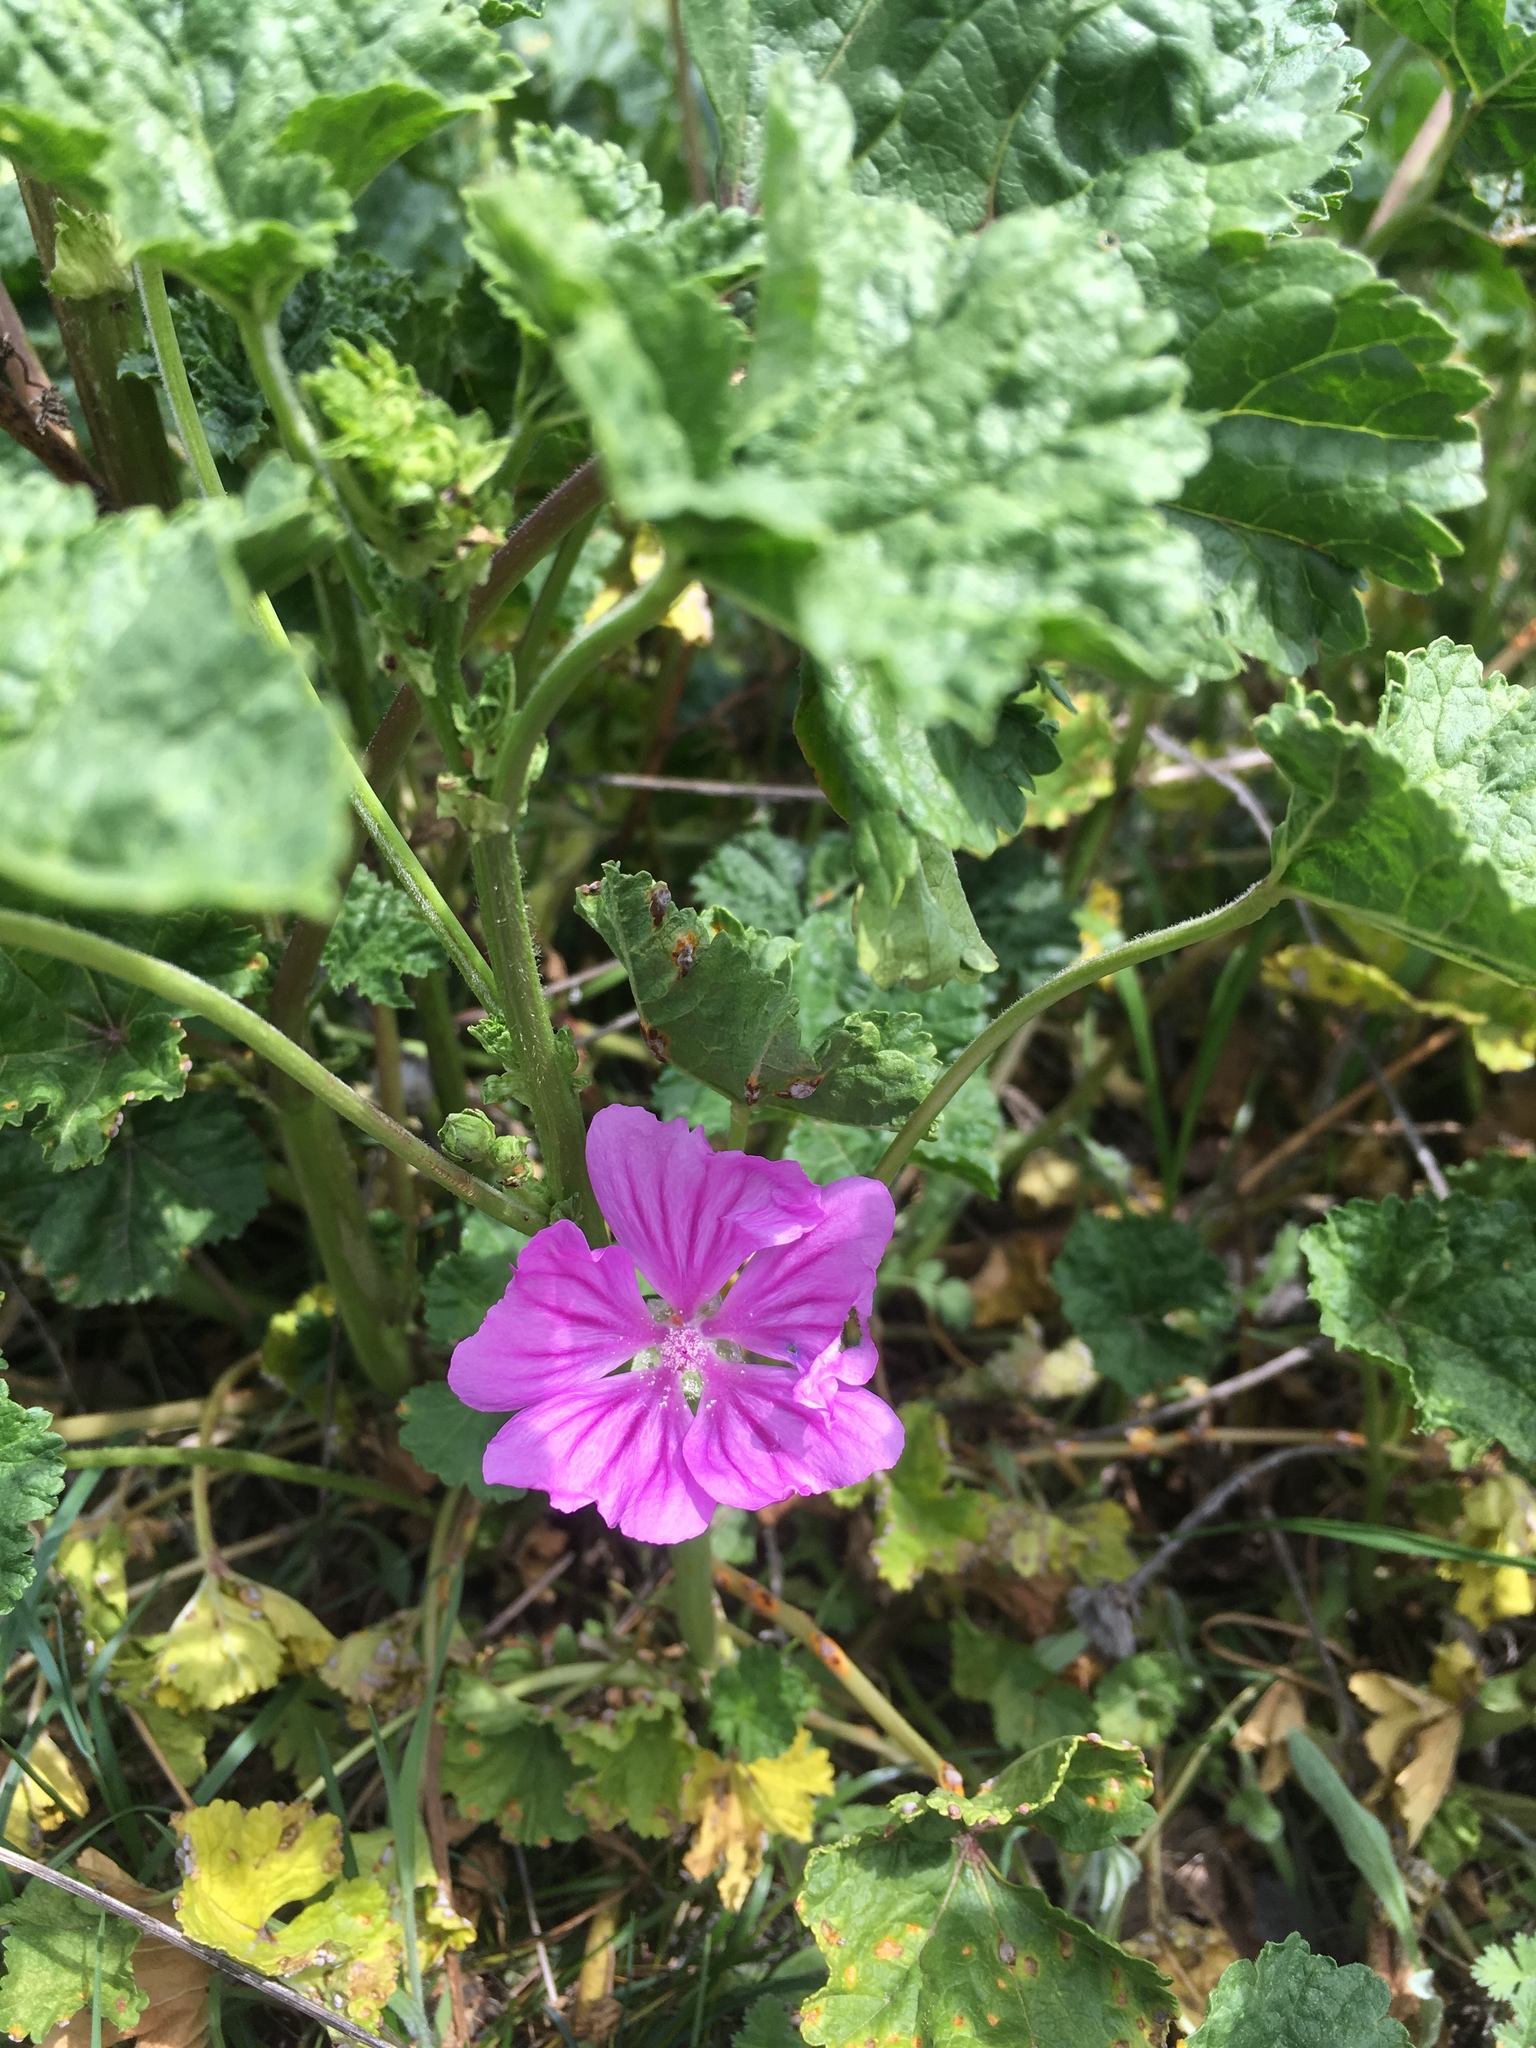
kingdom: Plantae
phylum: Tracheophyta
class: Magnoliopsida
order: Malvales
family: Malvaceae
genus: Malva
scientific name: Malva sylvestris
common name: Common mallow
